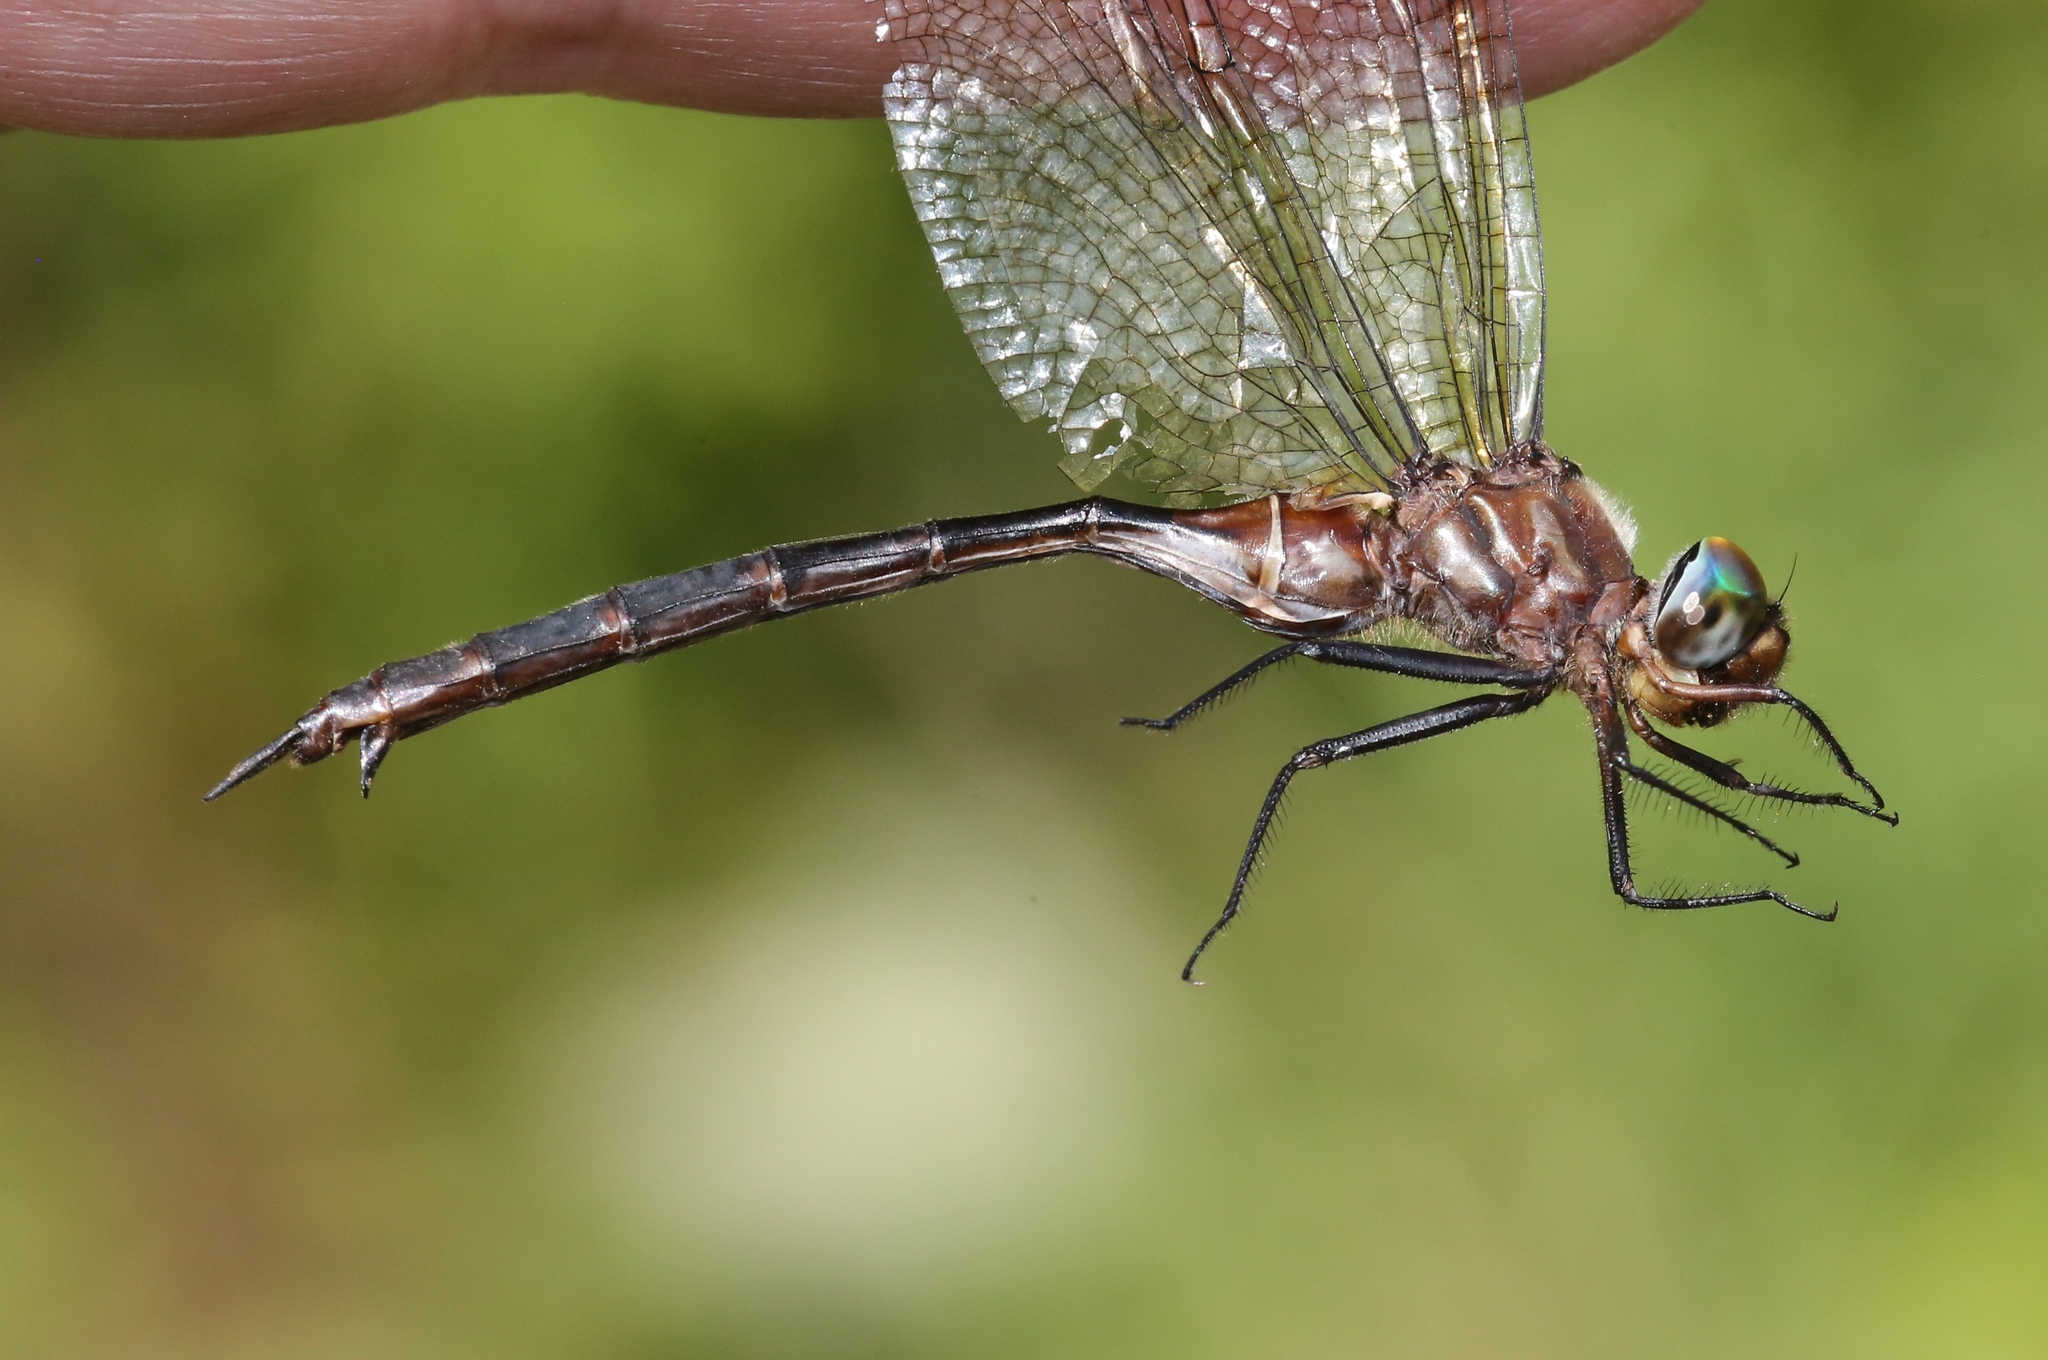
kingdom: Animalia
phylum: Arthropoda
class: Insecta
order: Odonata
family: Corduliidae
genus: Somatochlora
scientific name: Somatochlora tenebrosa
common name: Clamp-tipped emerald
